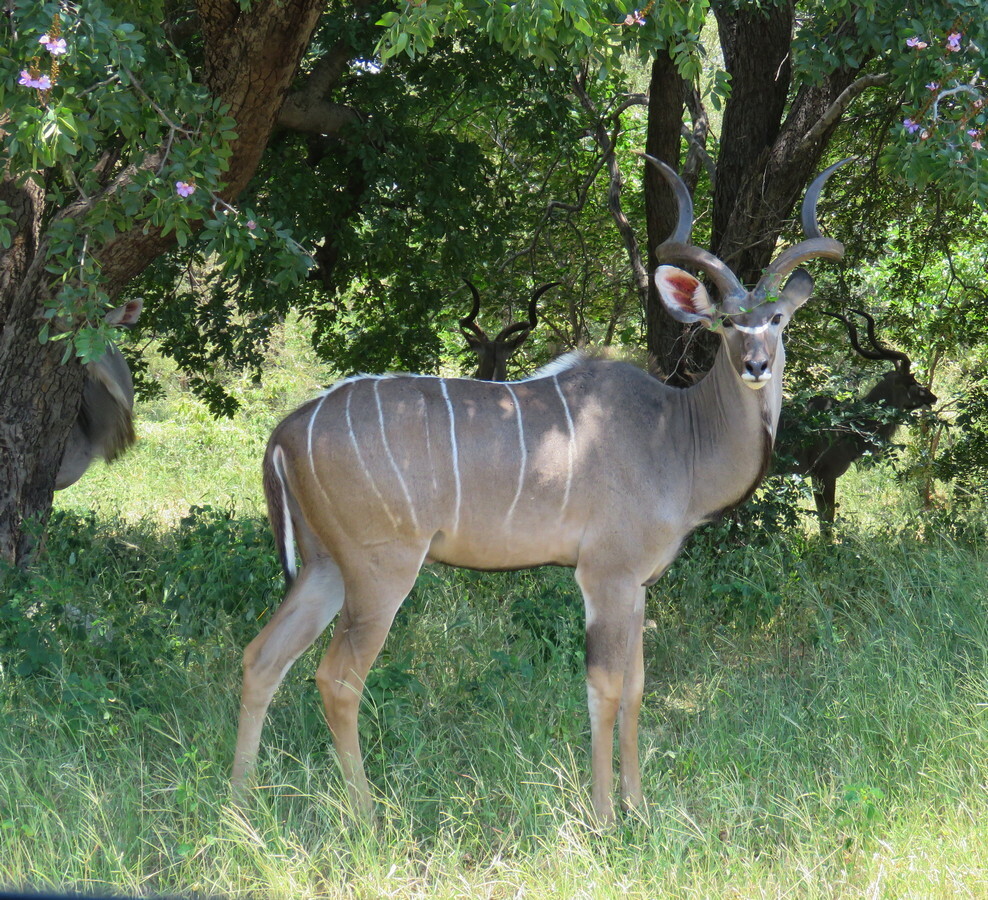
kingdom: Animalia
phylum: Chordata
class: Mammalia
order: Artiodactyla
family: Bovidae
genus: Tragelaphus
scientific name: Tragelaphus strepsiceros
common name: Greater kudu
